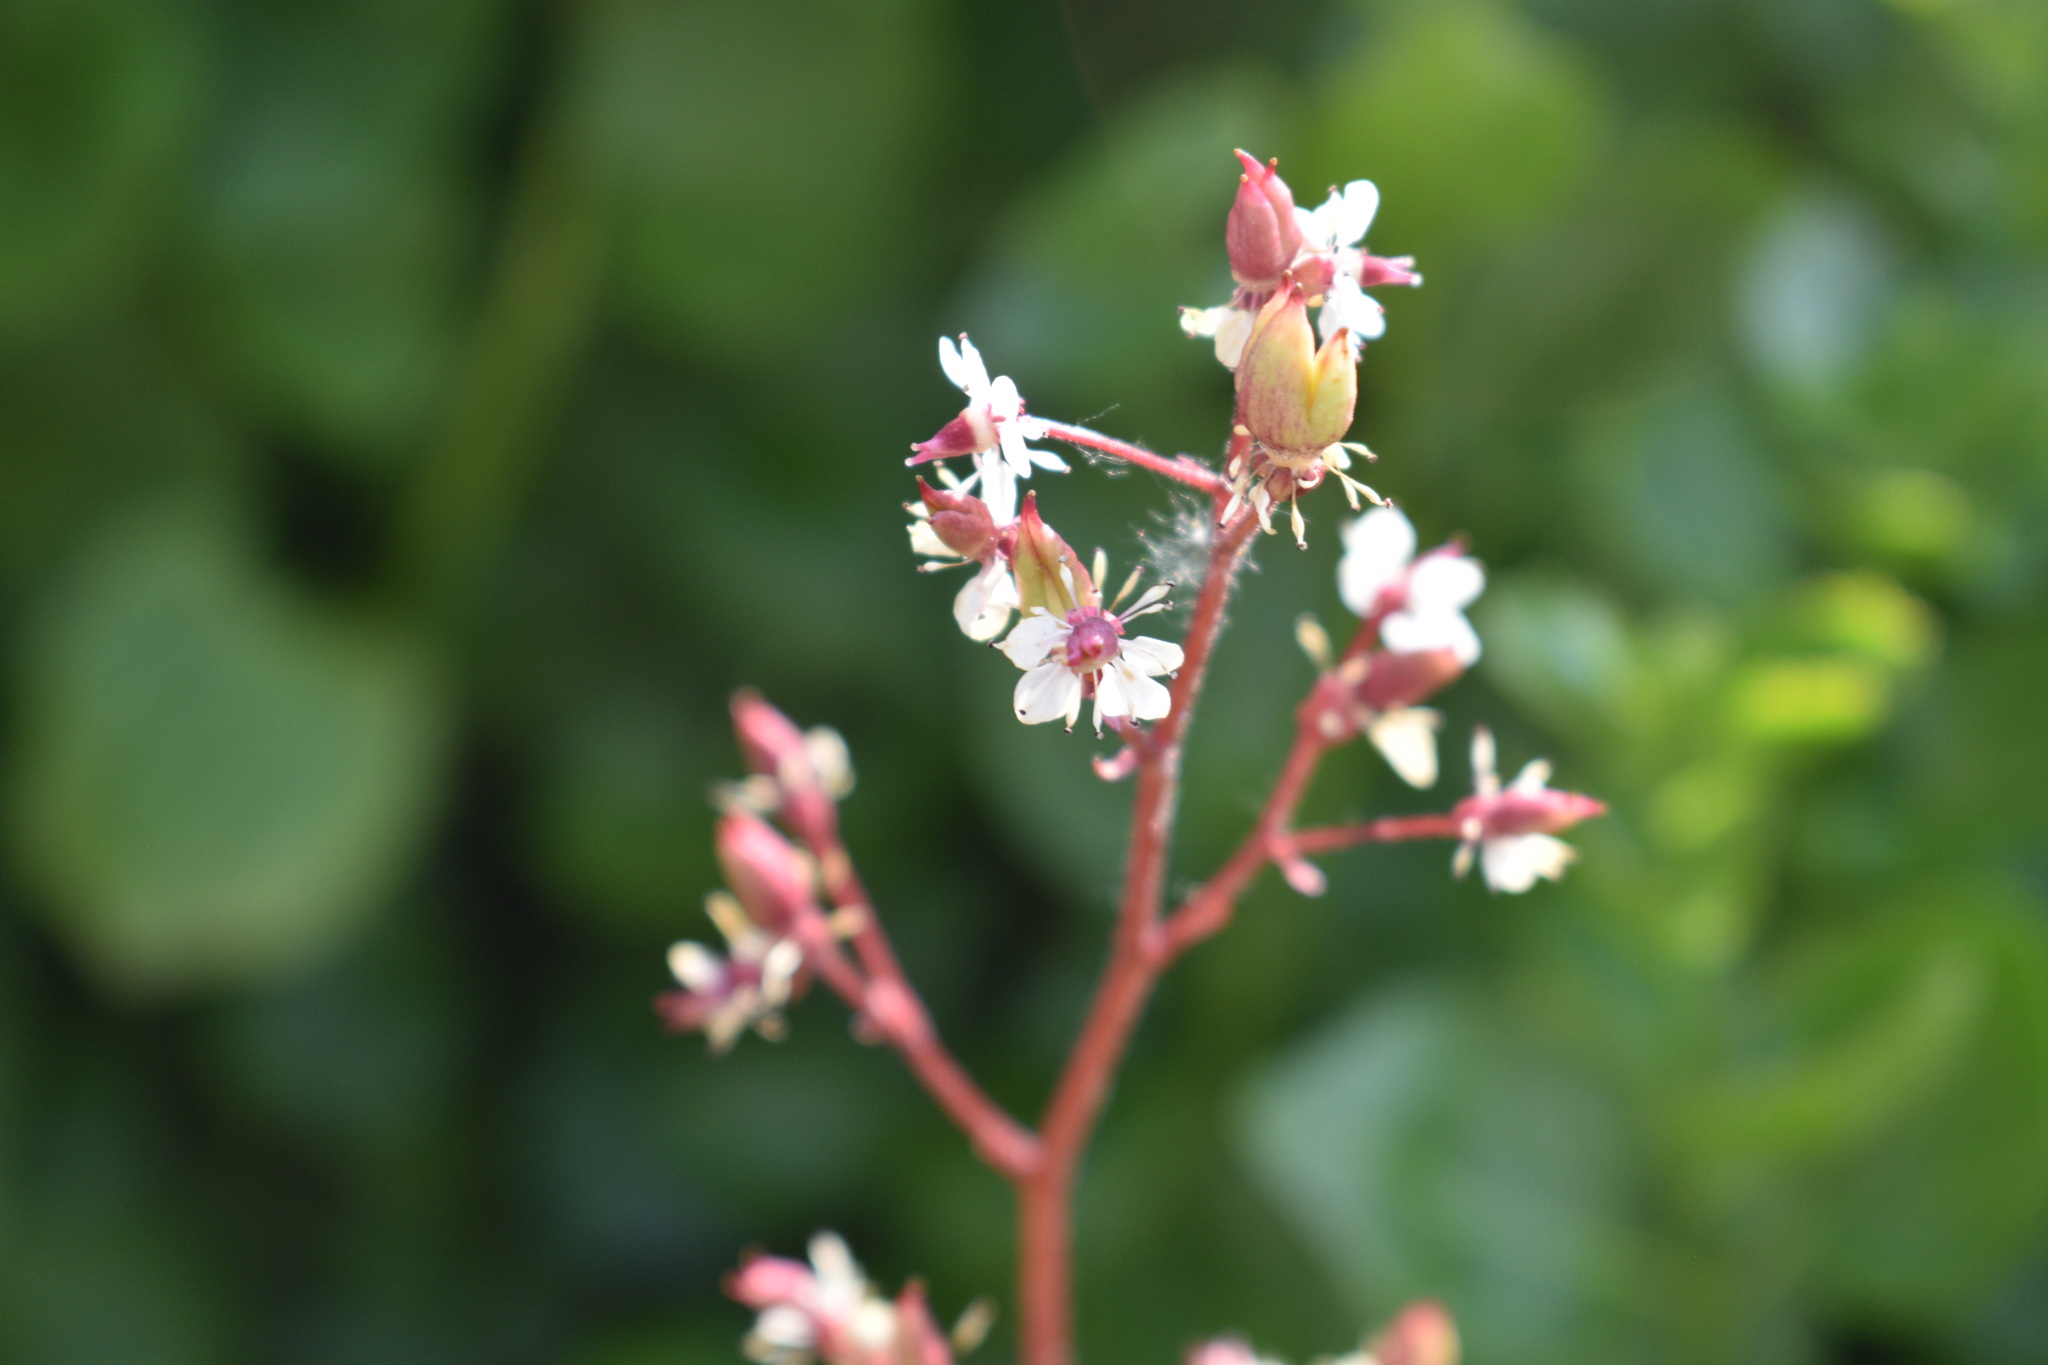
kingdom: Plantae
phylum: Tracheophyta
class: Magnoliopsida
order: Saxifragales
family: Saxifragaceae
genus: Micranthes
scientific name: Micranthes odontoloma
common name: Brook saxifrage
